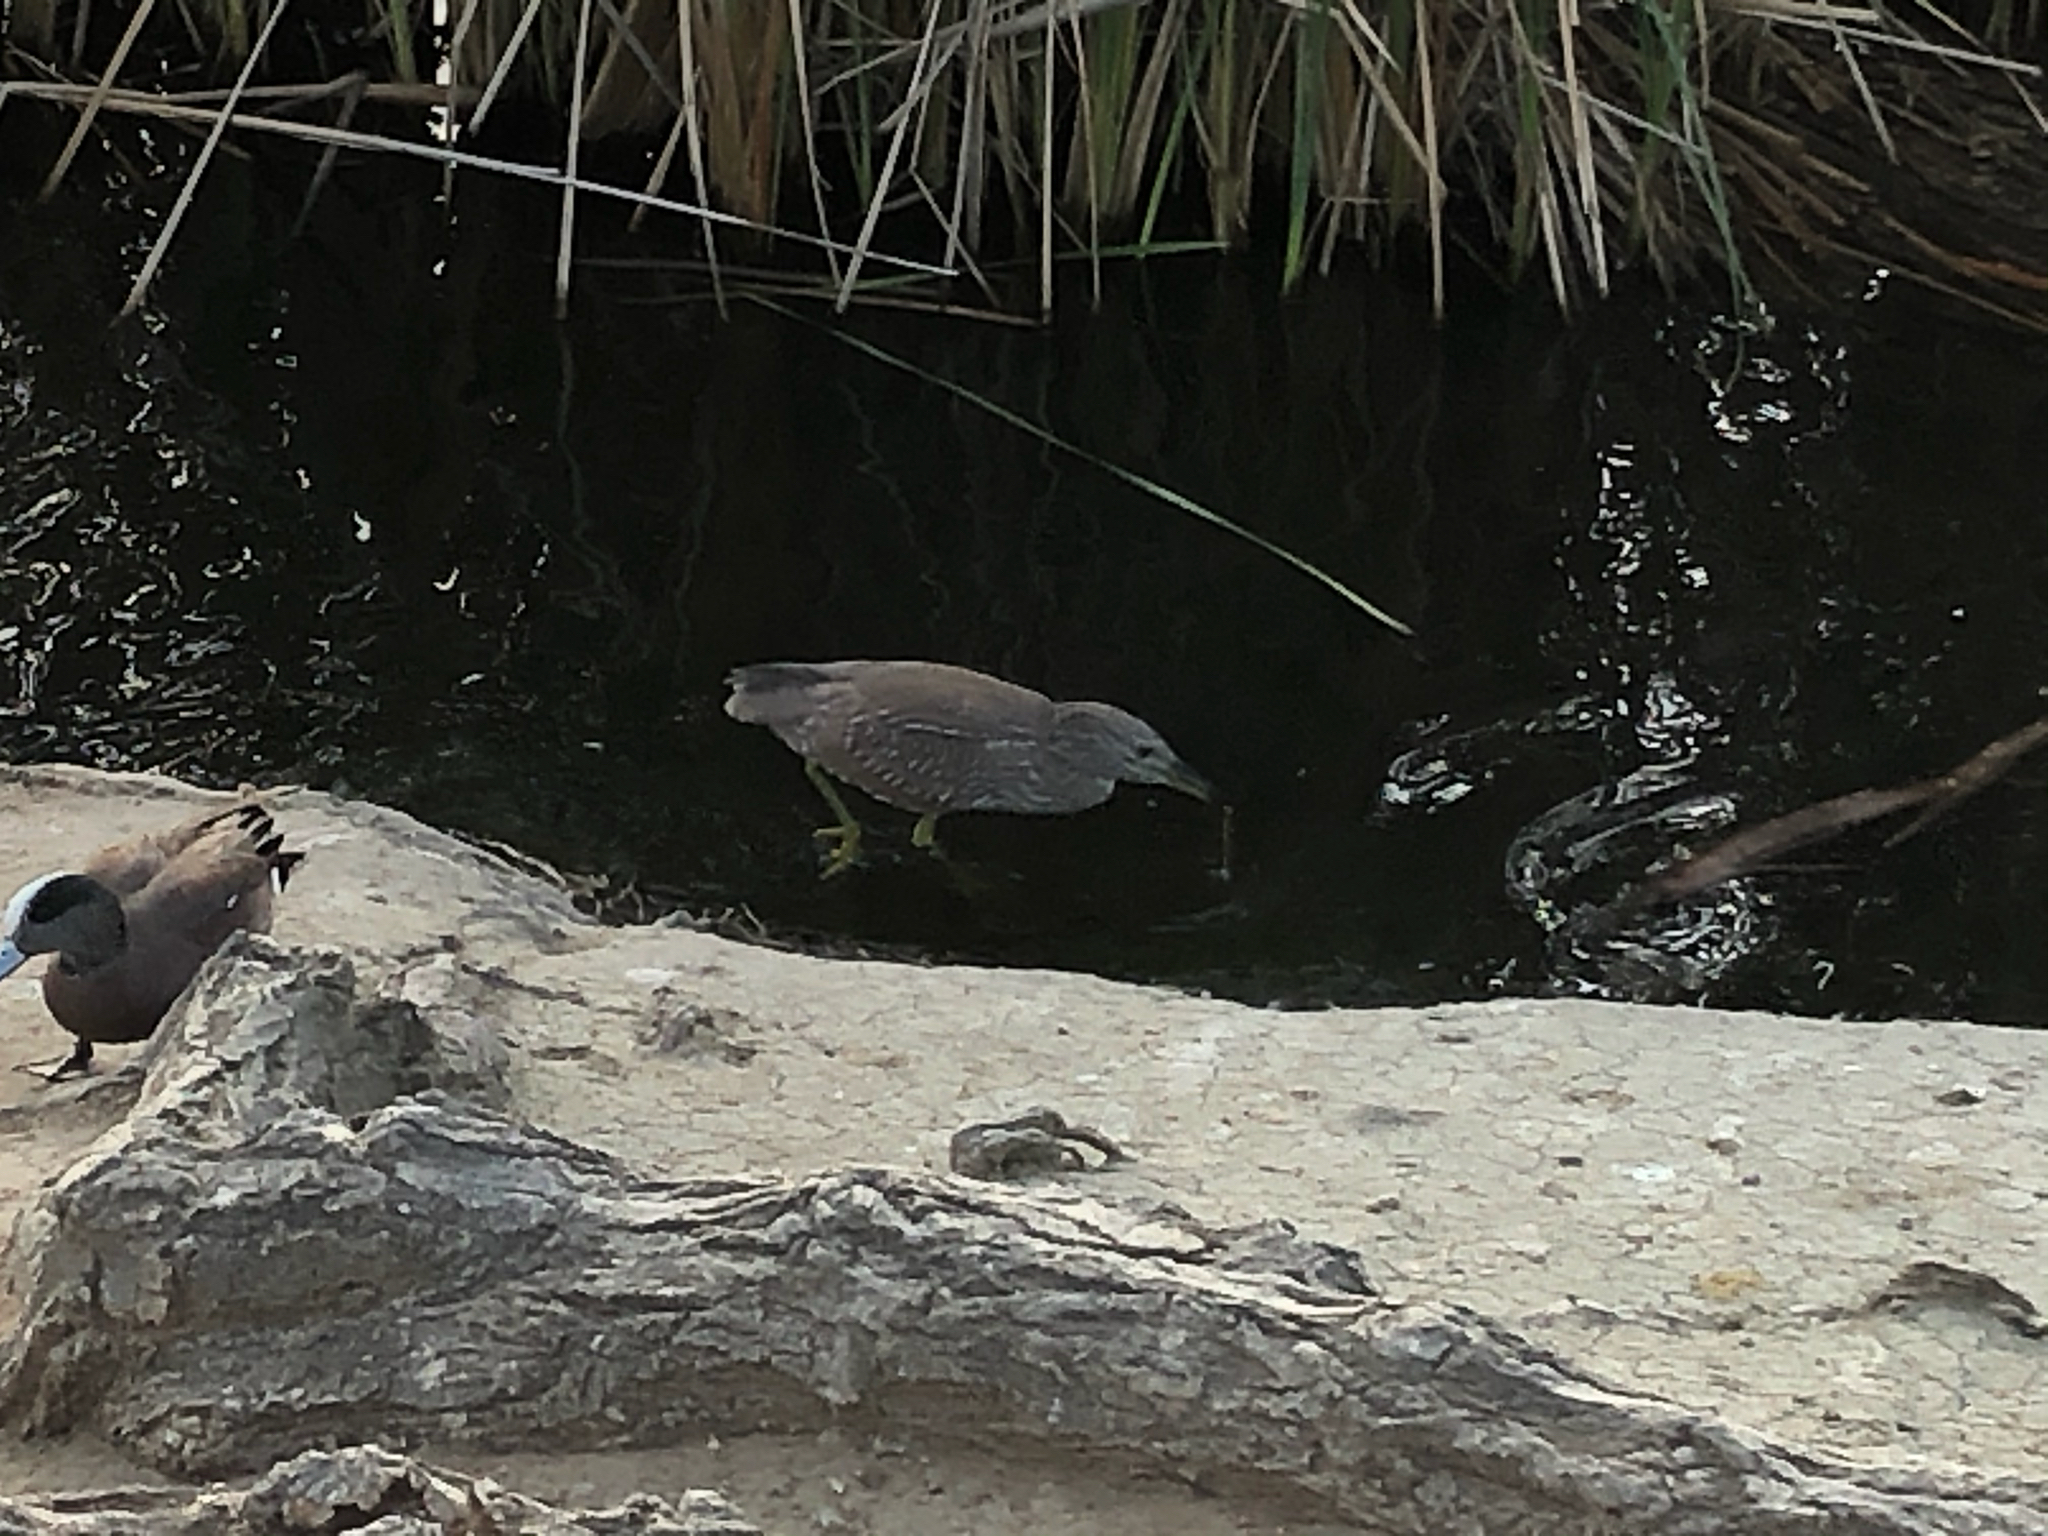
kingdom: Animalia
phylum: Chordata
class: Aves
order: Pelecaniformes
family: Ardeidae
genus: Nycticorax
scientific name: Nycticorax nycticorax
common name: Black-crowned night heron
